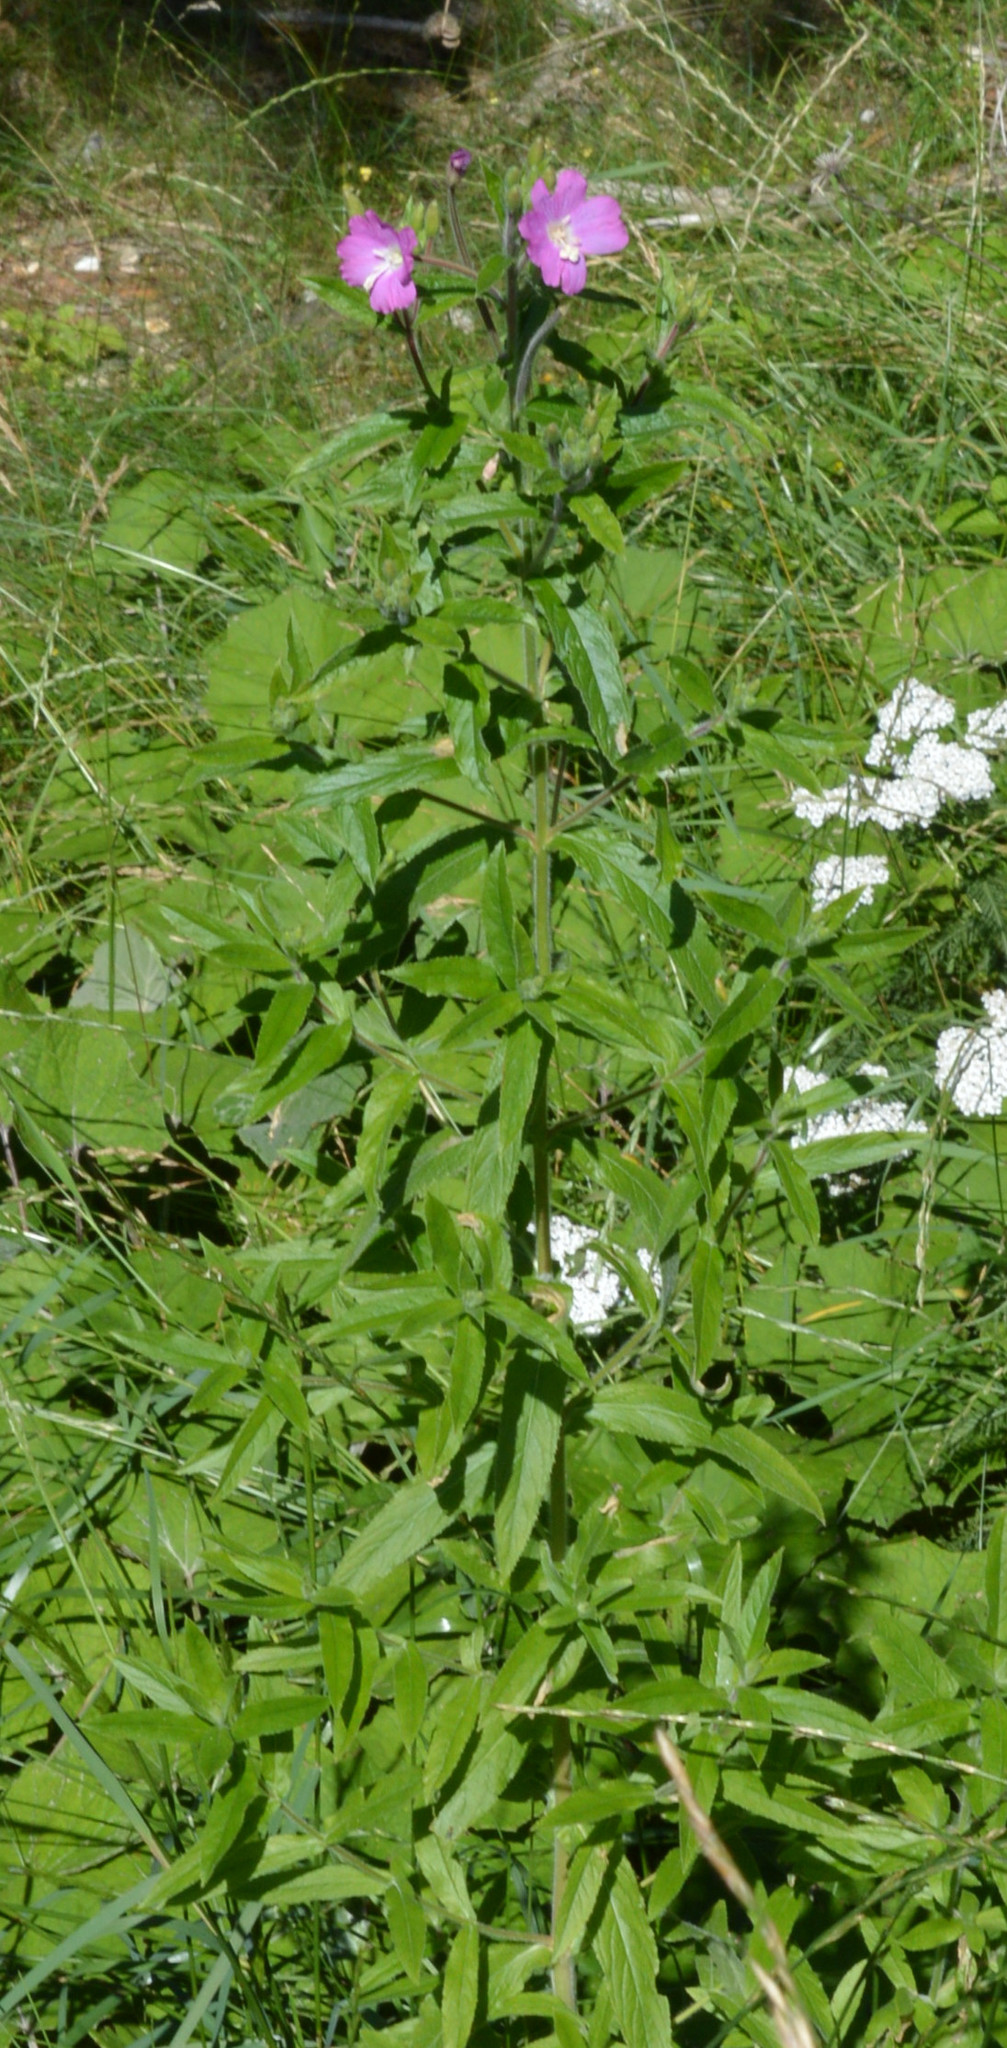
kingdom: Plantae
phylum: Tracheophyta
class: Magnoliopsida
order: Myrtales
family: Onagraceae
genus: Epilobium
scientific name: Epilobium hirsutum
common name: Great willowherb
